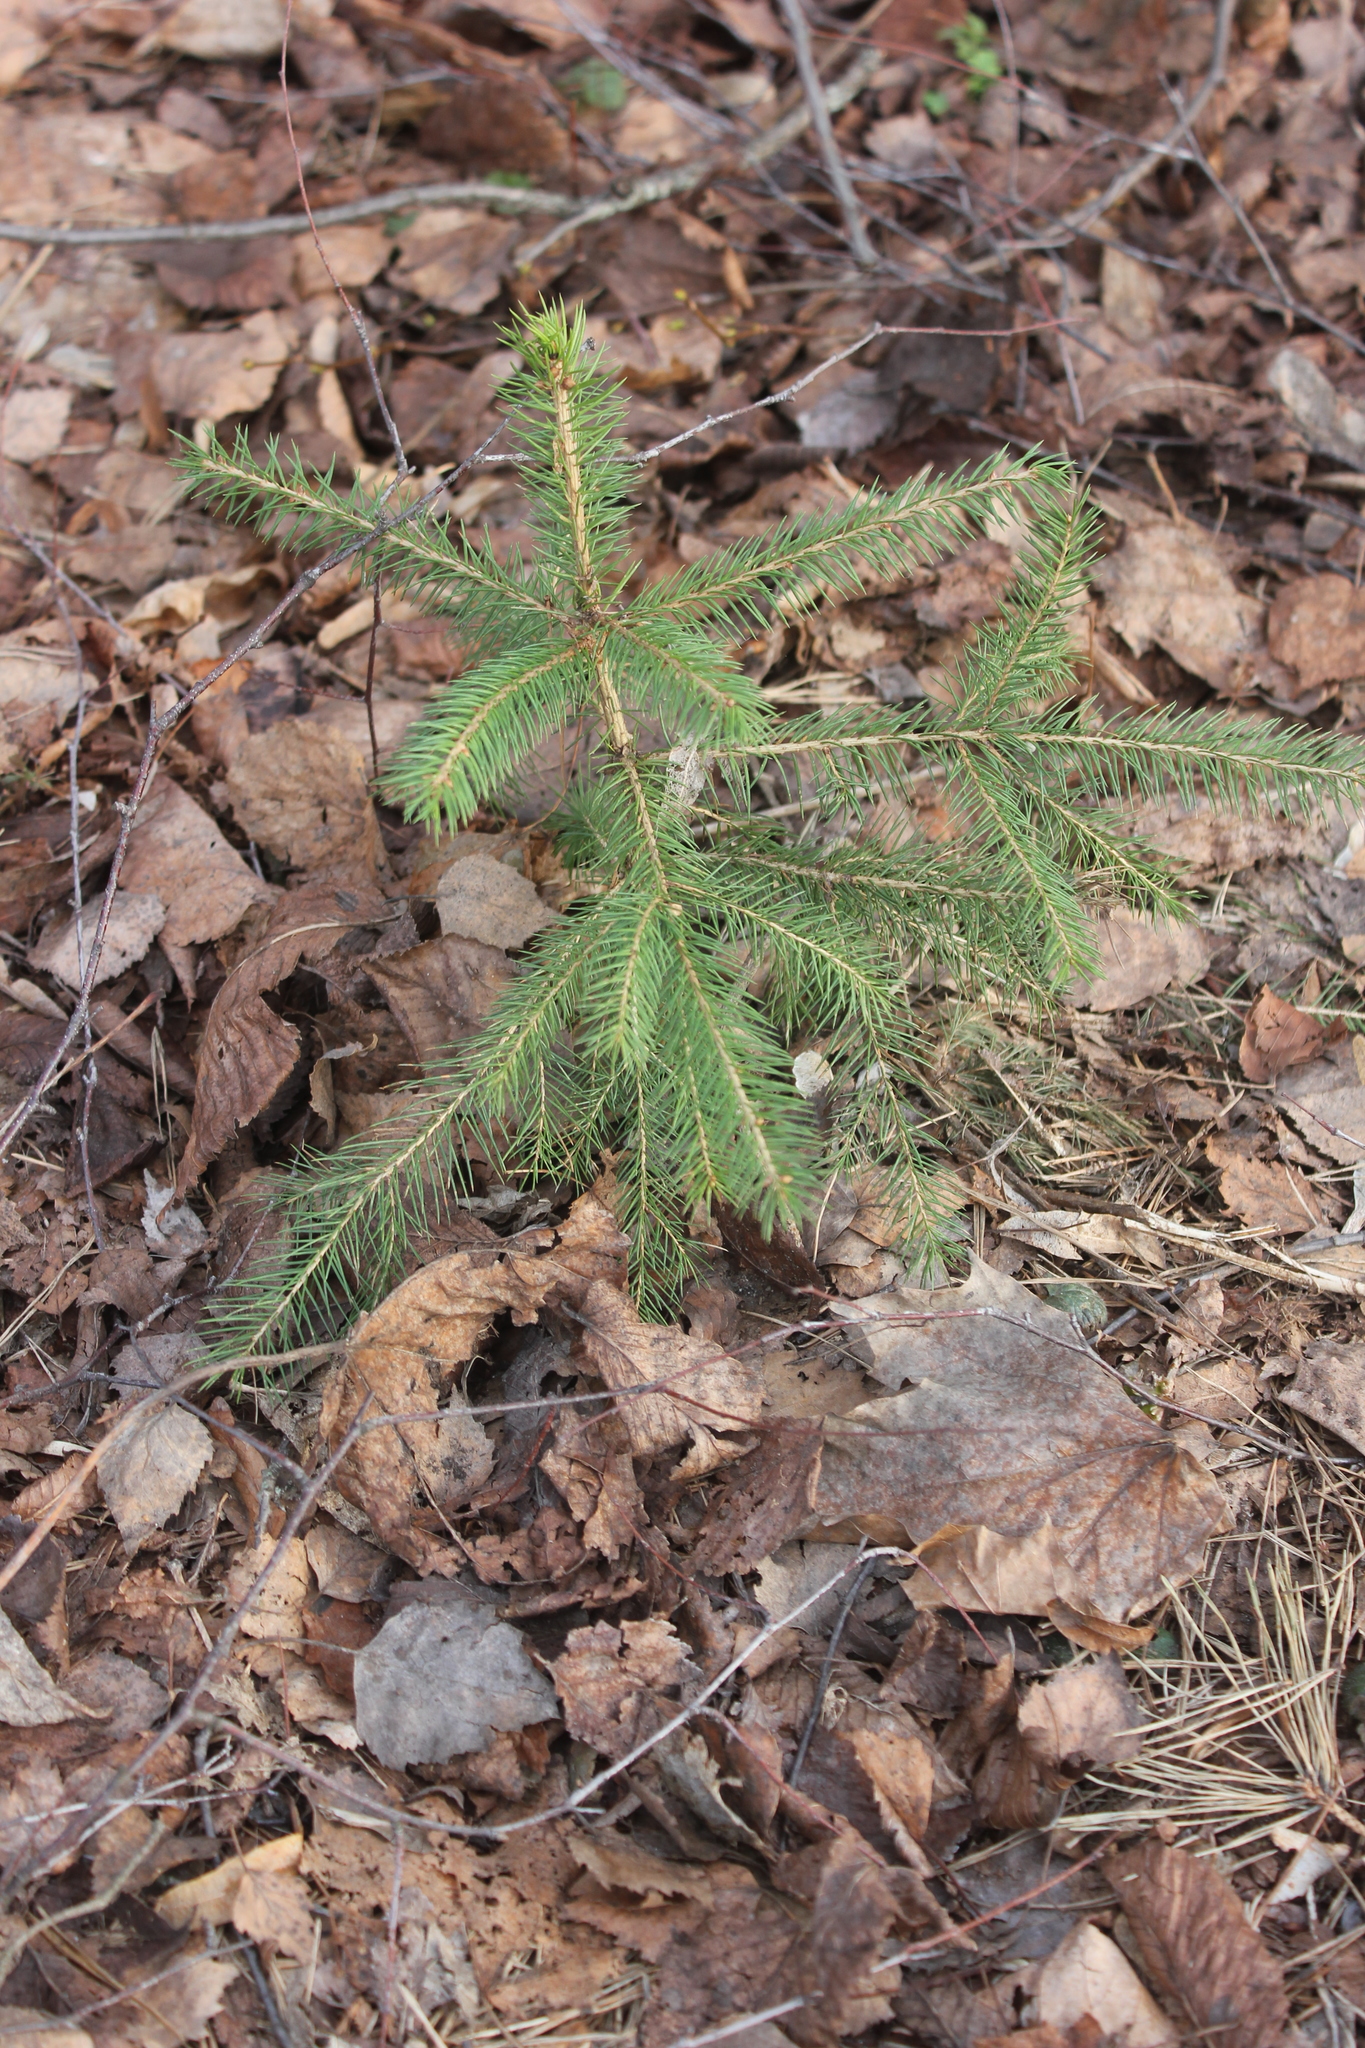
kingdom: Plantae
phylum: Tracheophyta
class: Pinopsida
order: Pinales
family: Pinaceae
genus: Picea
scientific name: Picea abies
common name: Norway spruce
